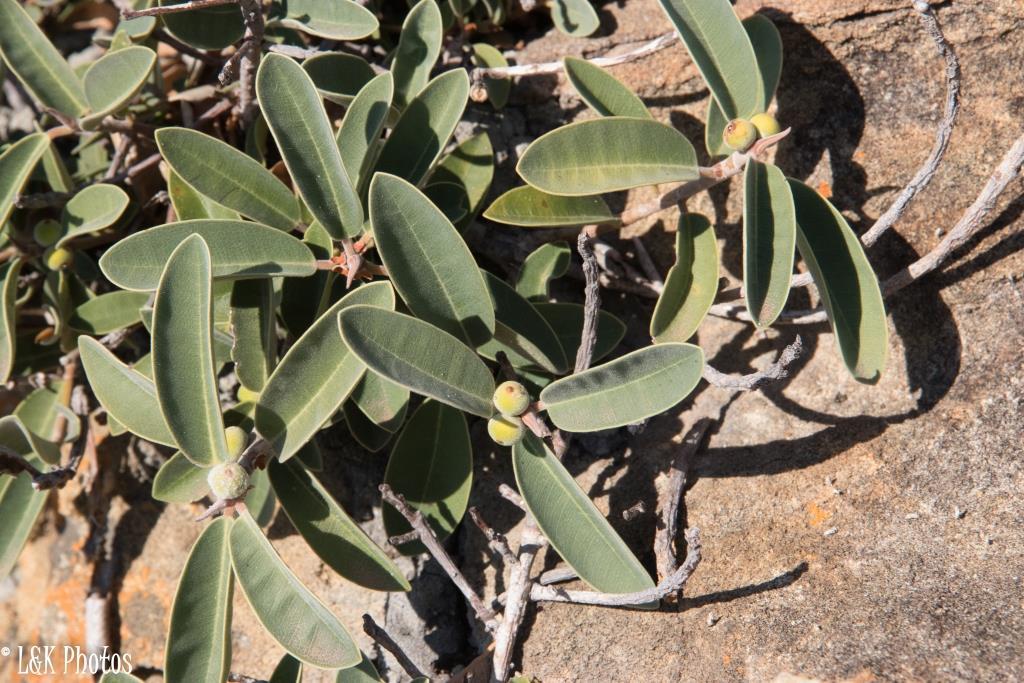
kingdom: Plantae
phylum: Tracheophyta
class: Magnoliopsida
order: Rosales
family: Moraceae
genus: Ficus
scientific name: Ficus menabeensis
